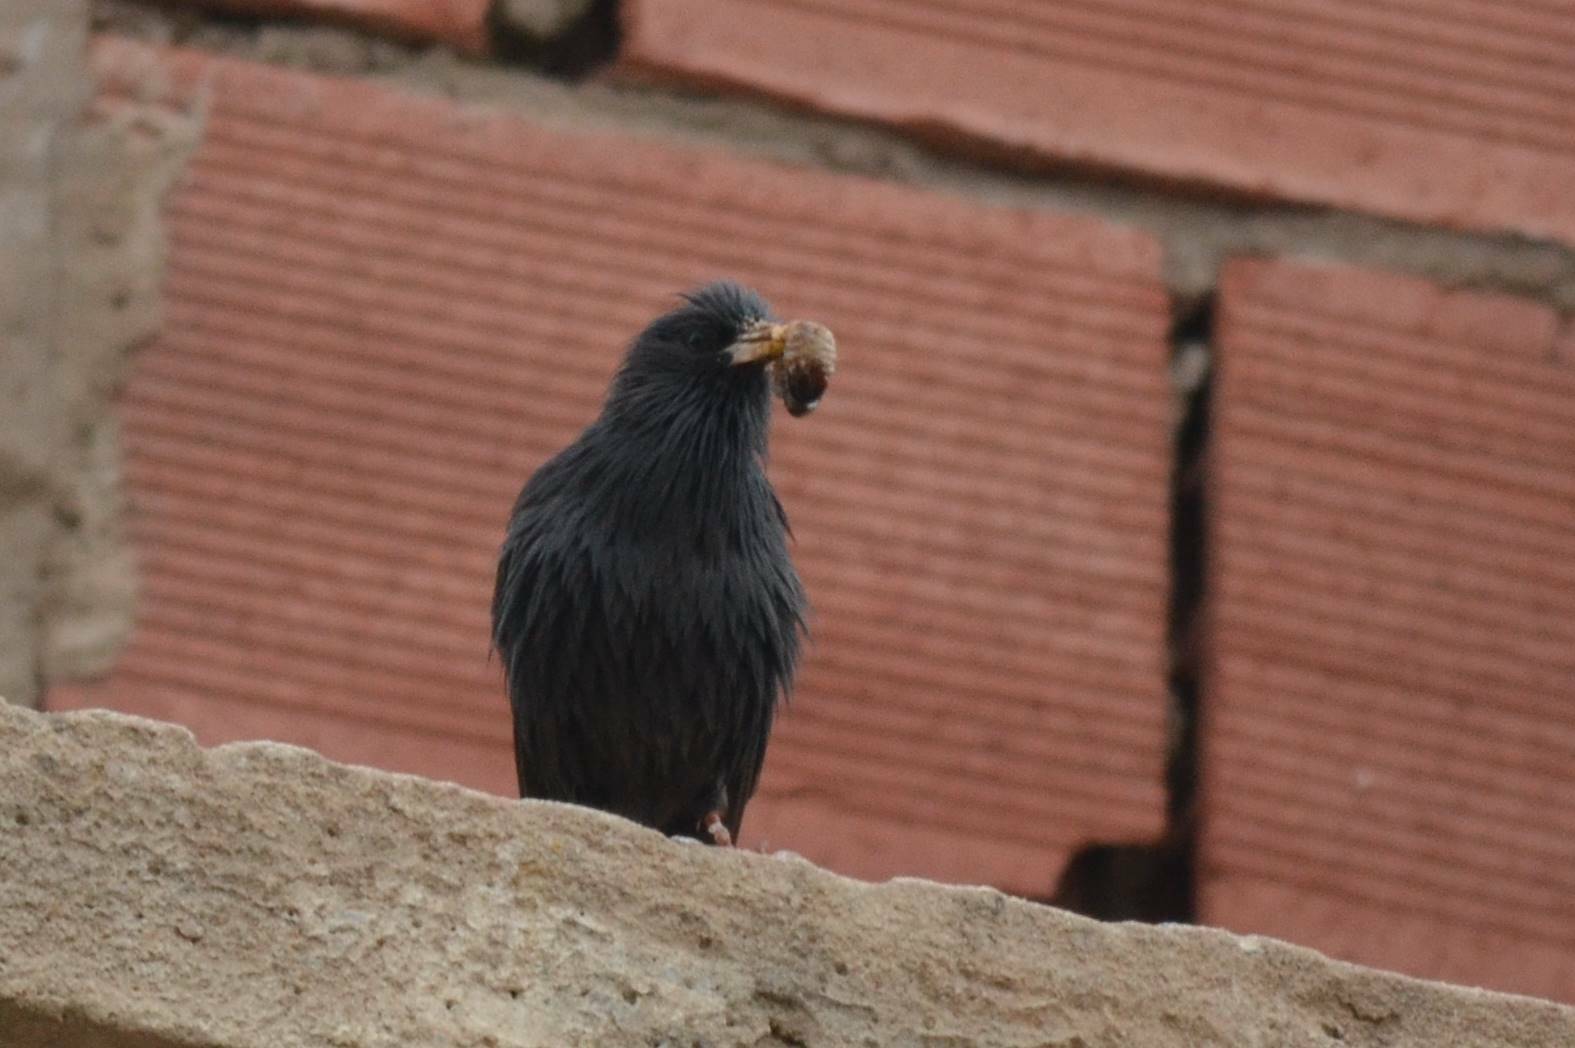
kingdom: Animalia
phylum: Chordata
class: Aves
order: Passeriformes
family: Sturnidae
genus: Sturnus
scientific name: Sturnus unicolor
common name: Spotless starling
